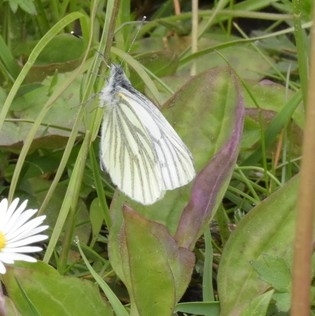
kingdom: Animalia
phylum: Arthropoda
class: Insecta
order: Lepidoptera
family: Pieridae
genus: Pieris
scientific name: Pieris napi
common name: Green-veined white
